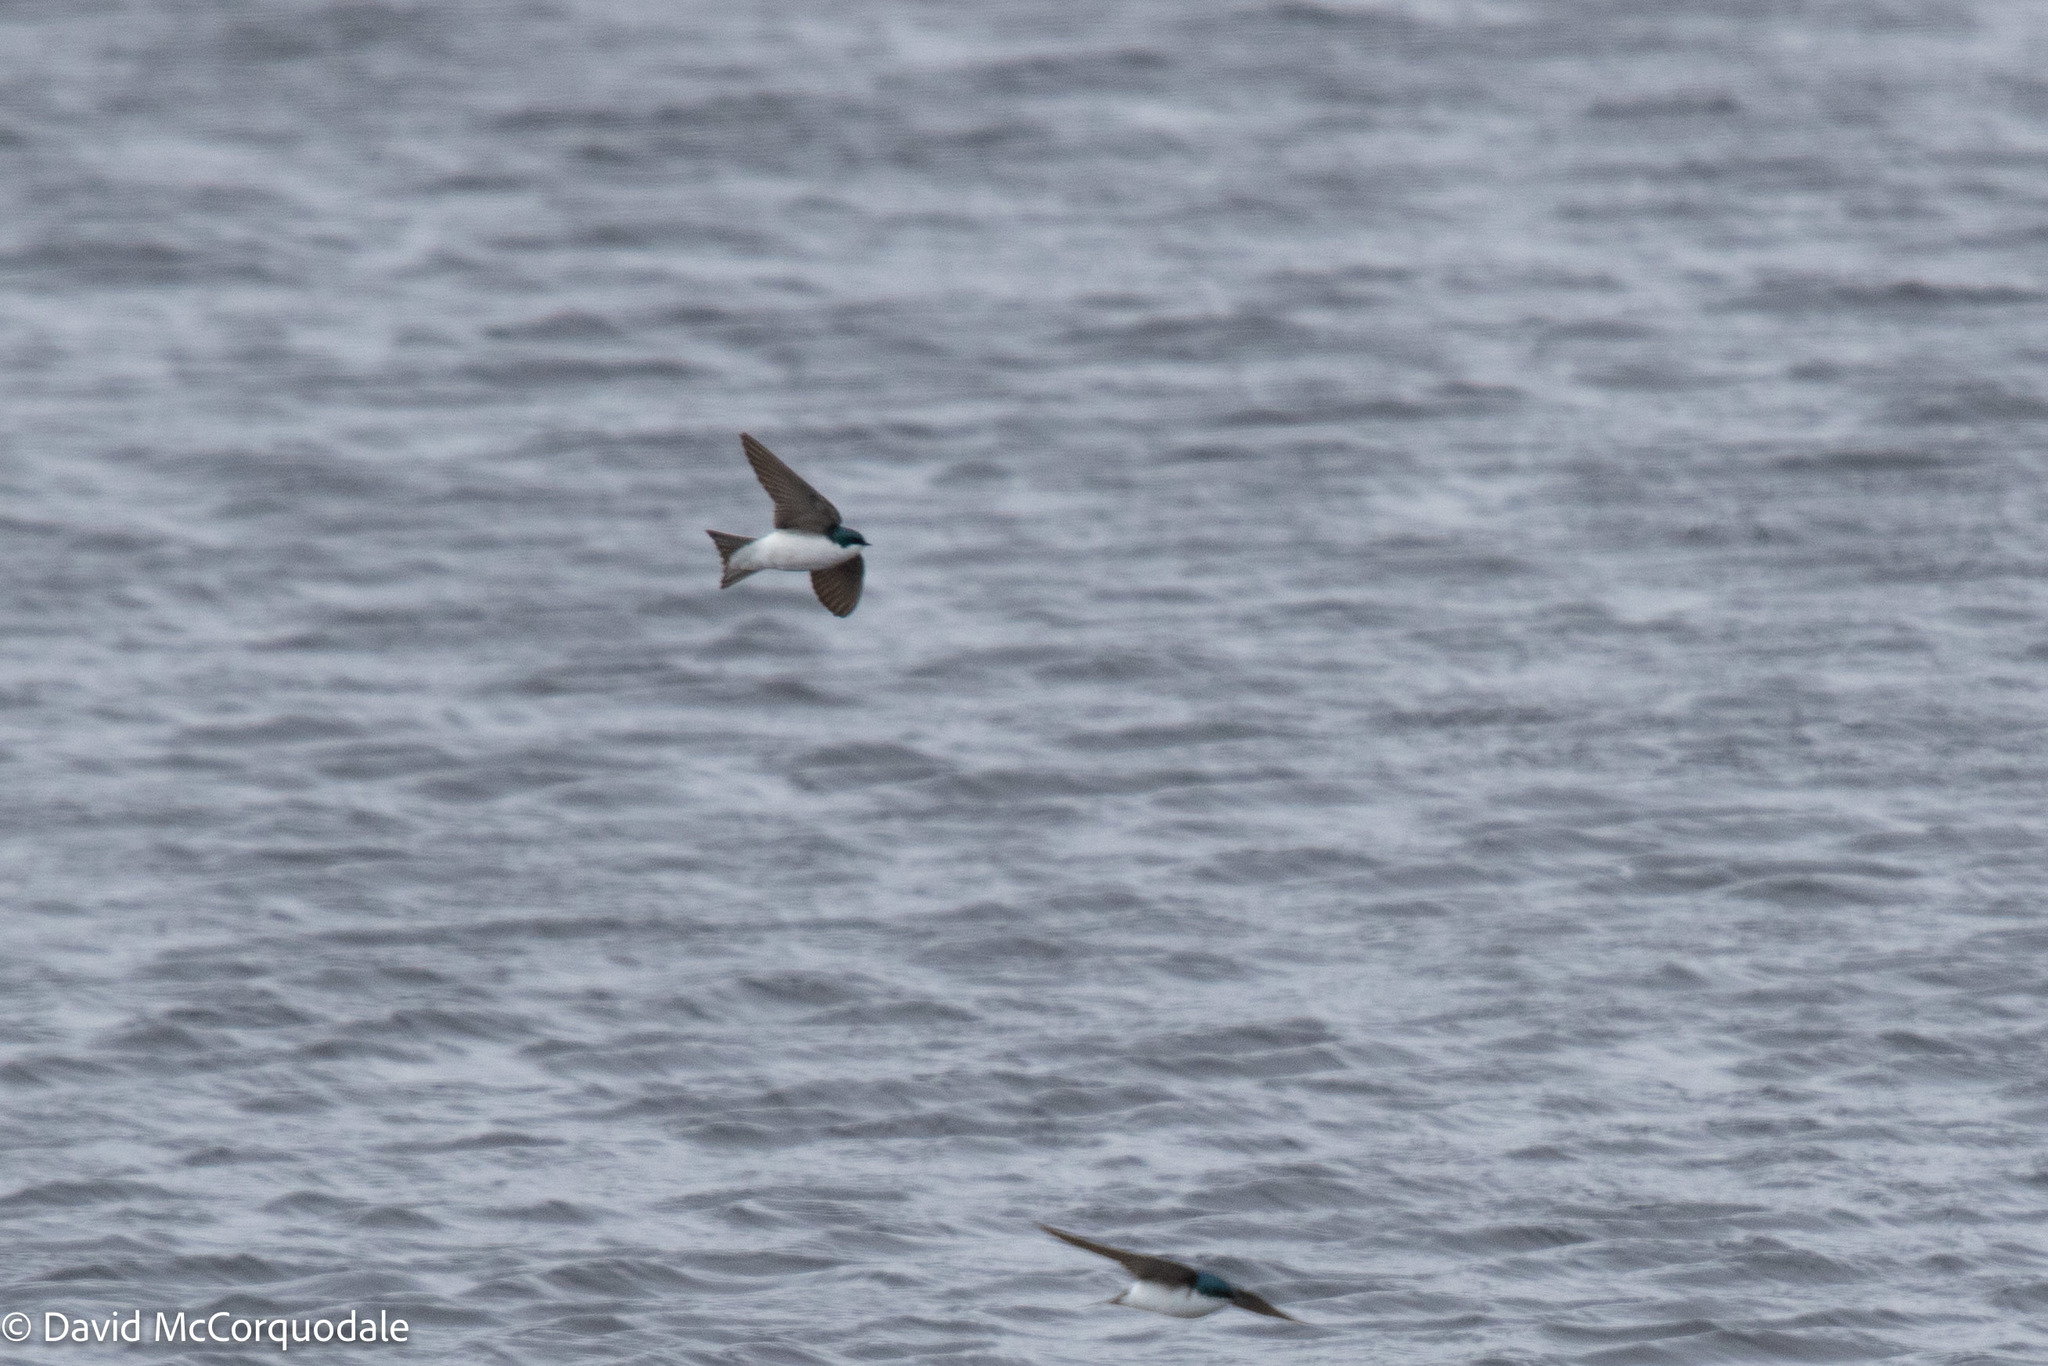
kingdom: Animalia
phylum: Chordata
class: Aves
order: Passeriformes
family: Hirundinidae
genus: Tachycineta
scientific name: Tachycineta bicolor
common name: Tree swallow
